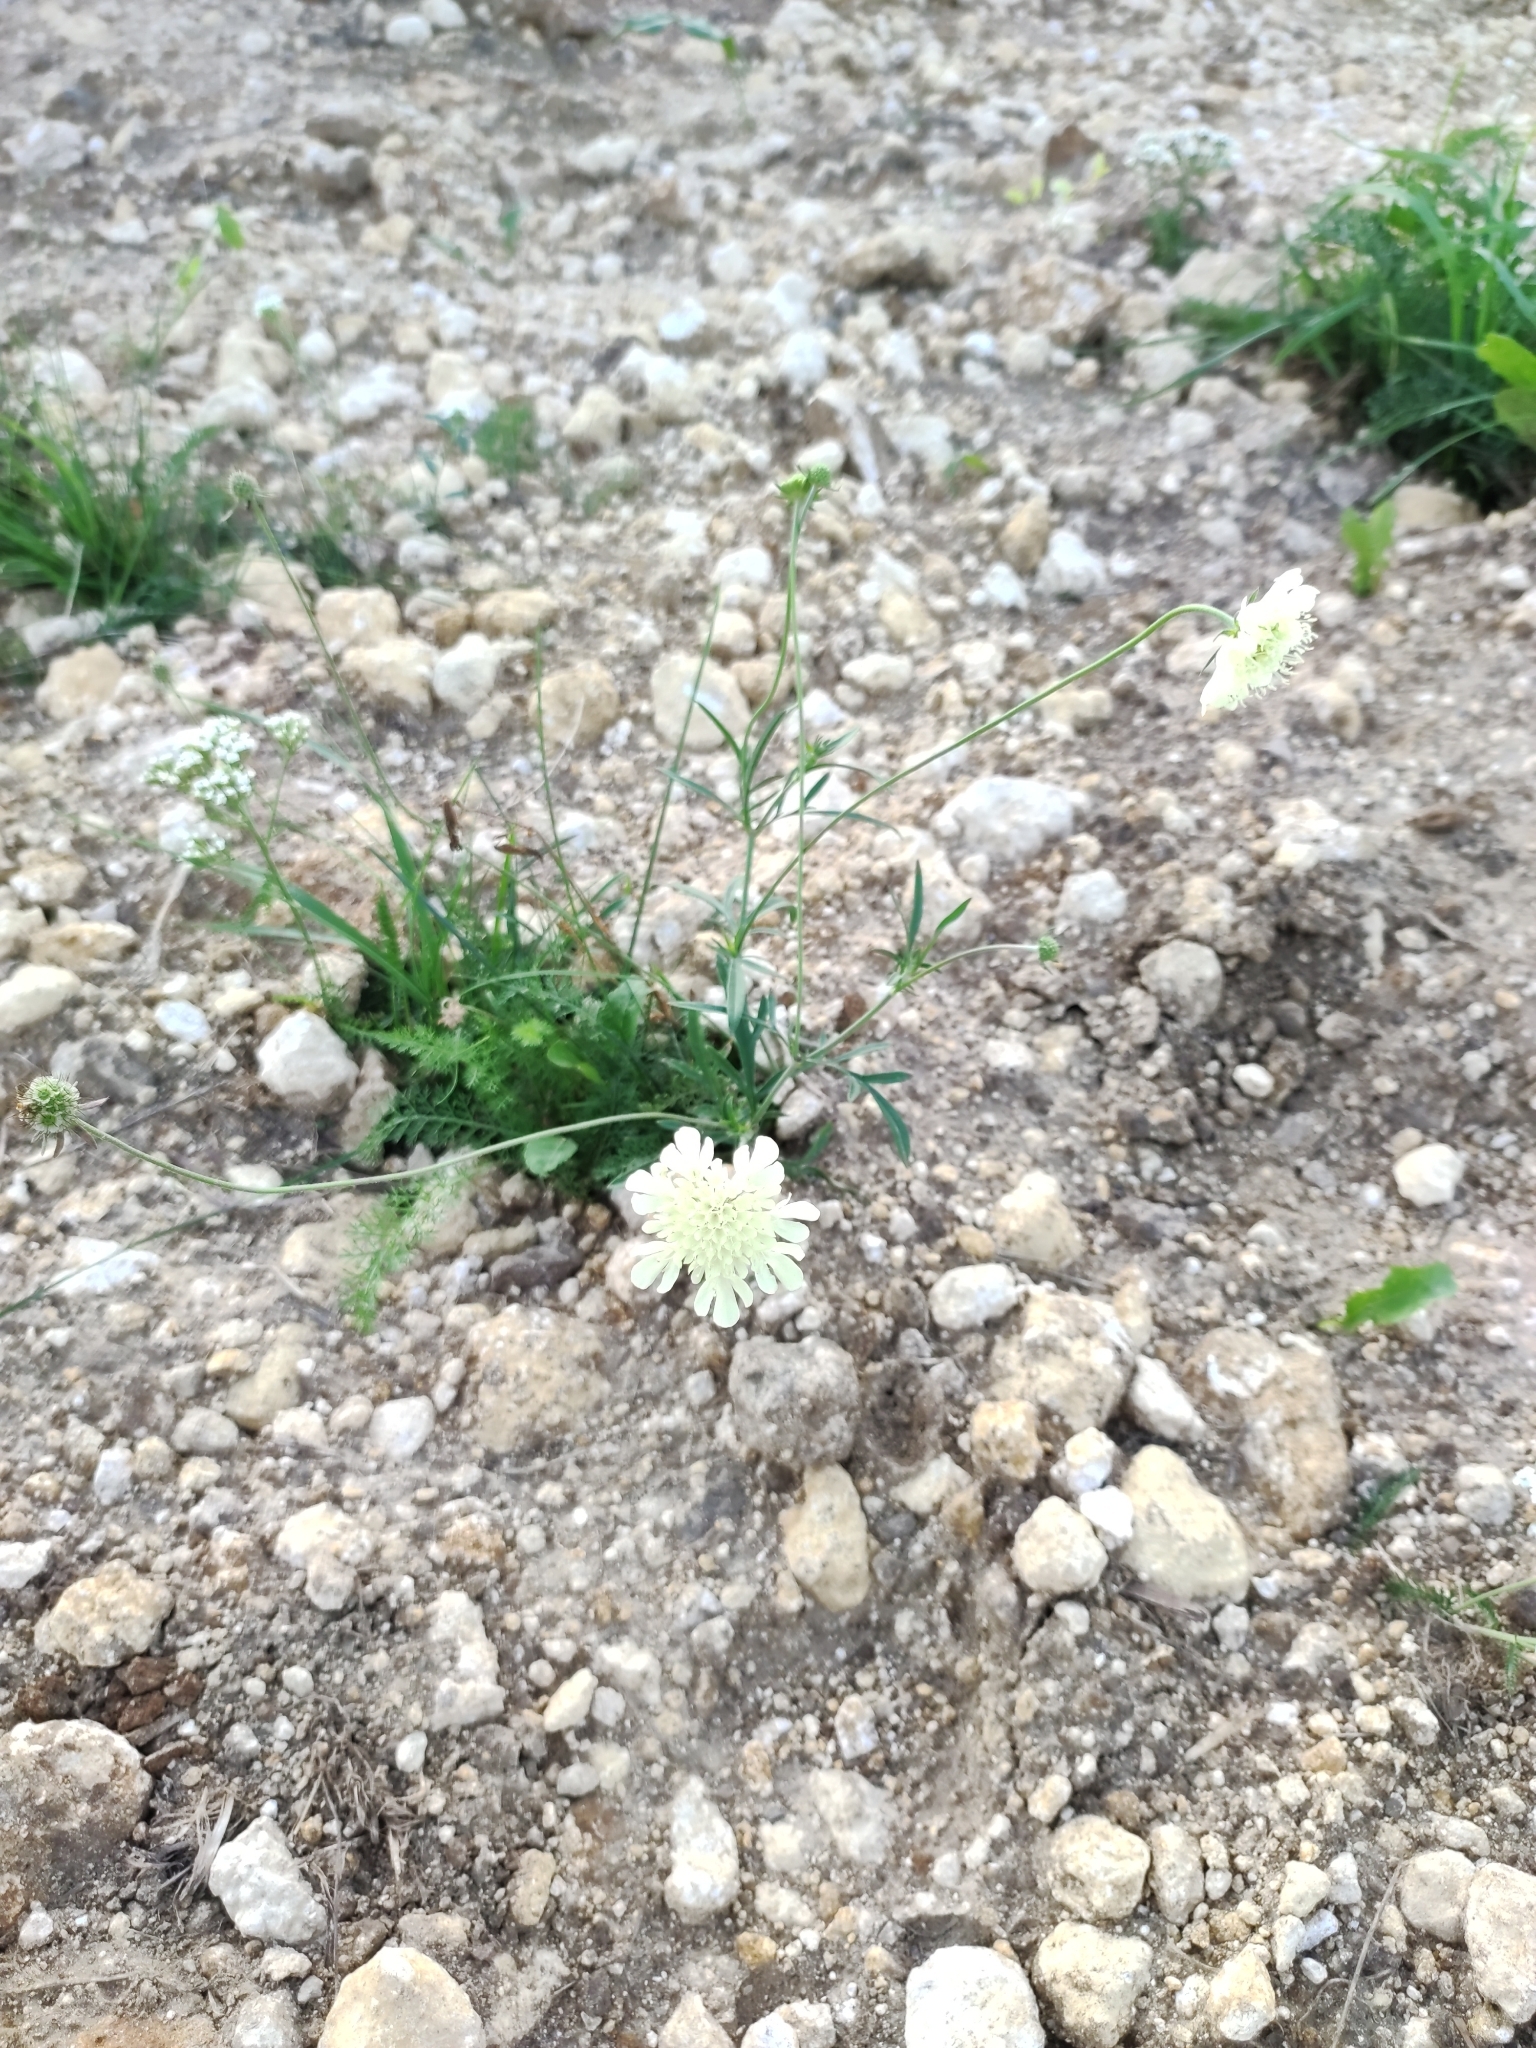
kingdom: Plantae
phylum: Tracheophyta
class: Magnoliopsida
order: Dipsacales
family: Caprifoliaceae
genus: Scabiosa
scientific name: Scabiosa ochroleuca
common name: Cream pincushions
